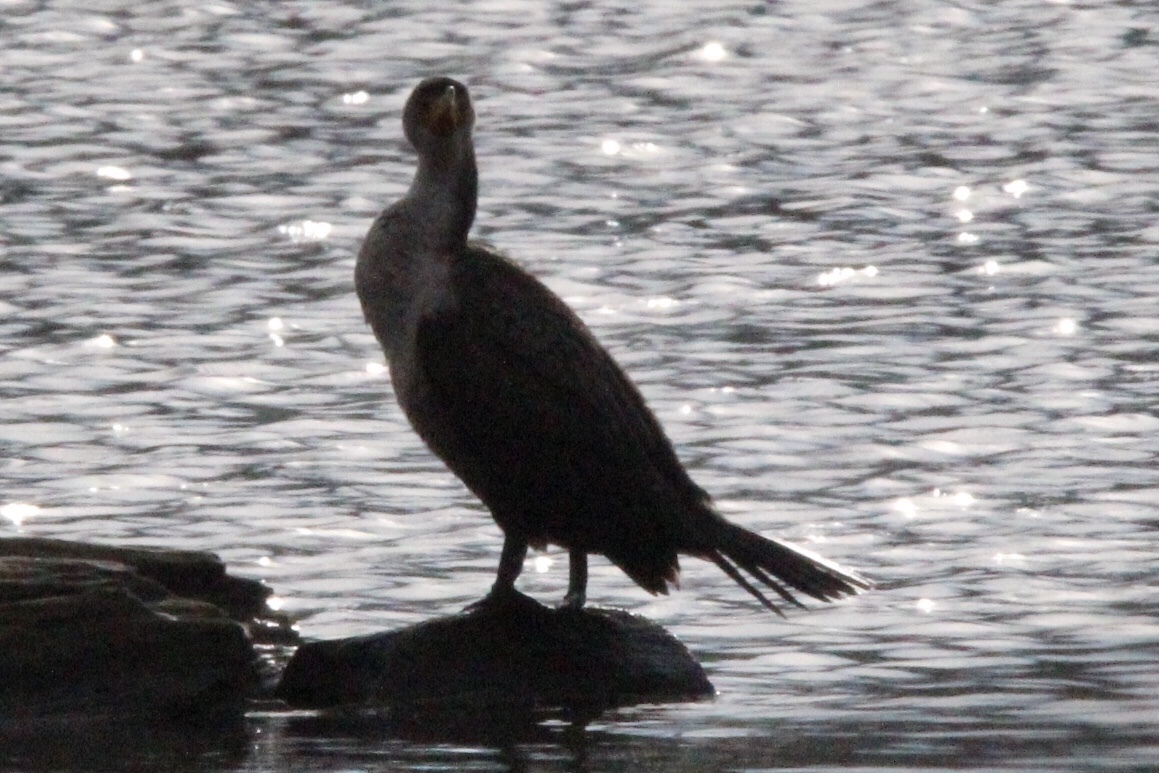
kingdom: Animalia
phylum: Chordata
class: Aves
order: Suliformes
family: Phalacrocoracidae
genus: Phalacrocorax
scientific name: Phalacrocorax auritus
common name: Double-crested cormorant
